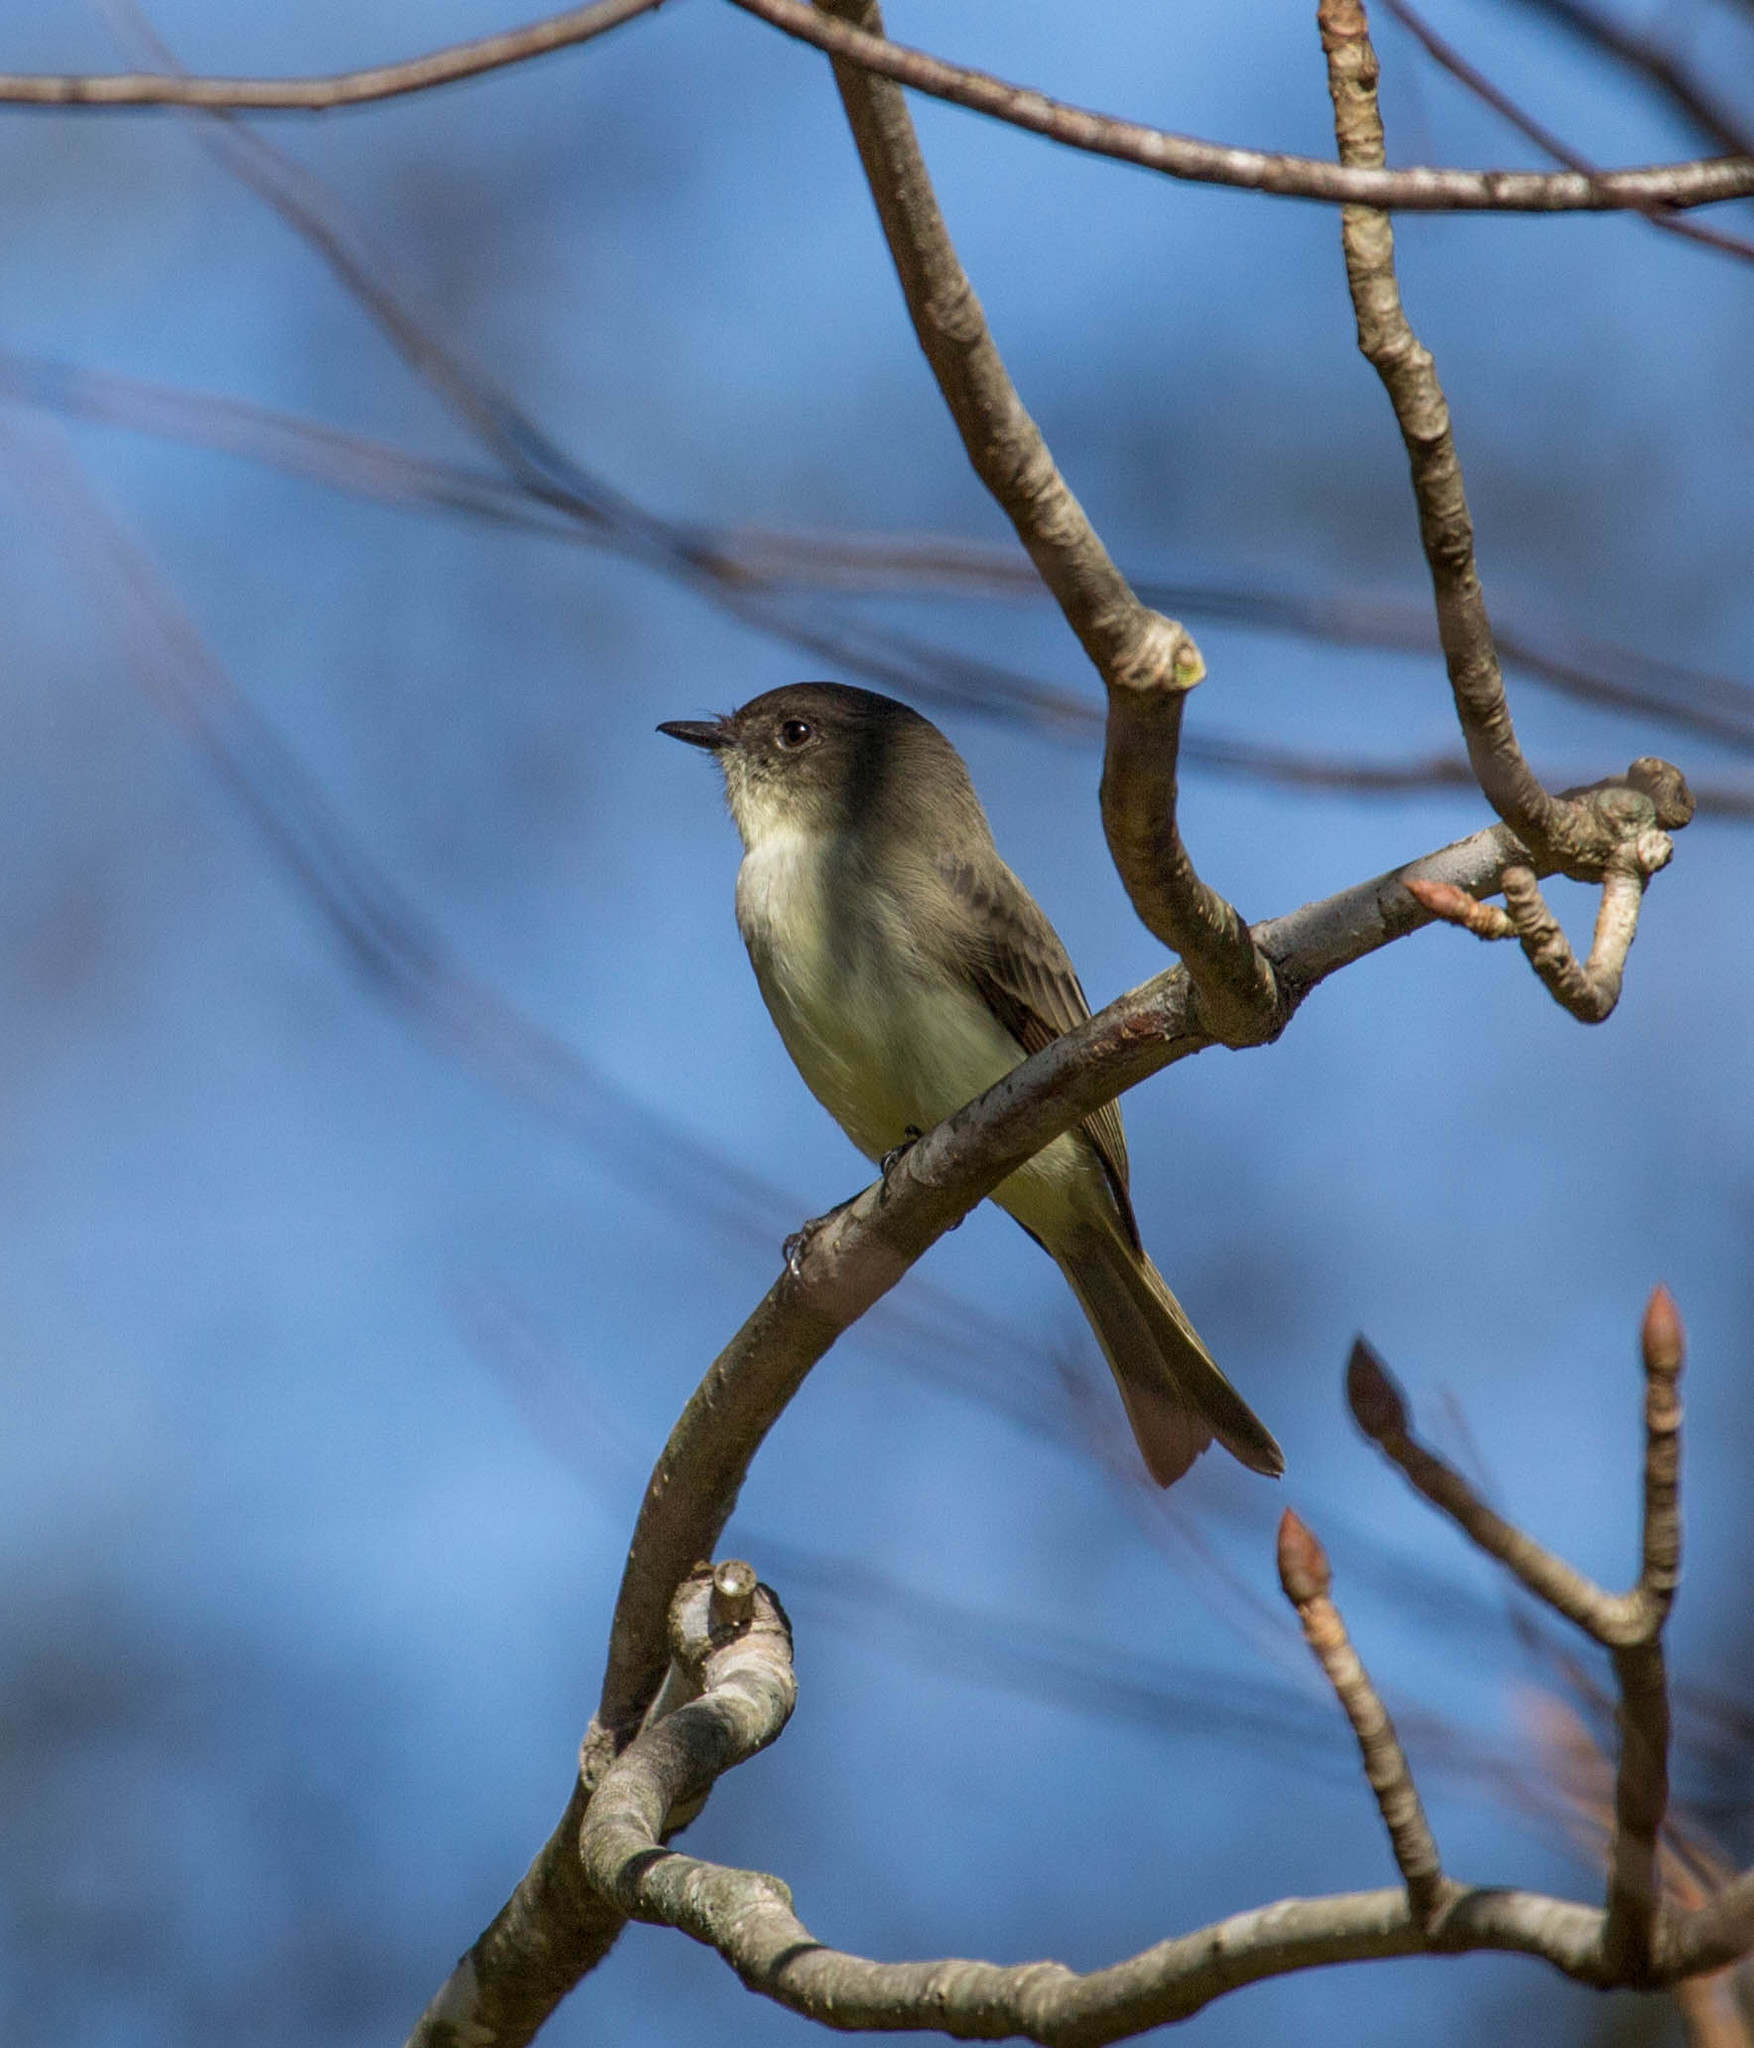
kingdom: Animalia
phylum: Chordata
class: Aves
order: Passeriformes
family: Tyrannidae
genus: Sayornis
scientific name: Sayornis phoebe
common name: Eastern phoebe
